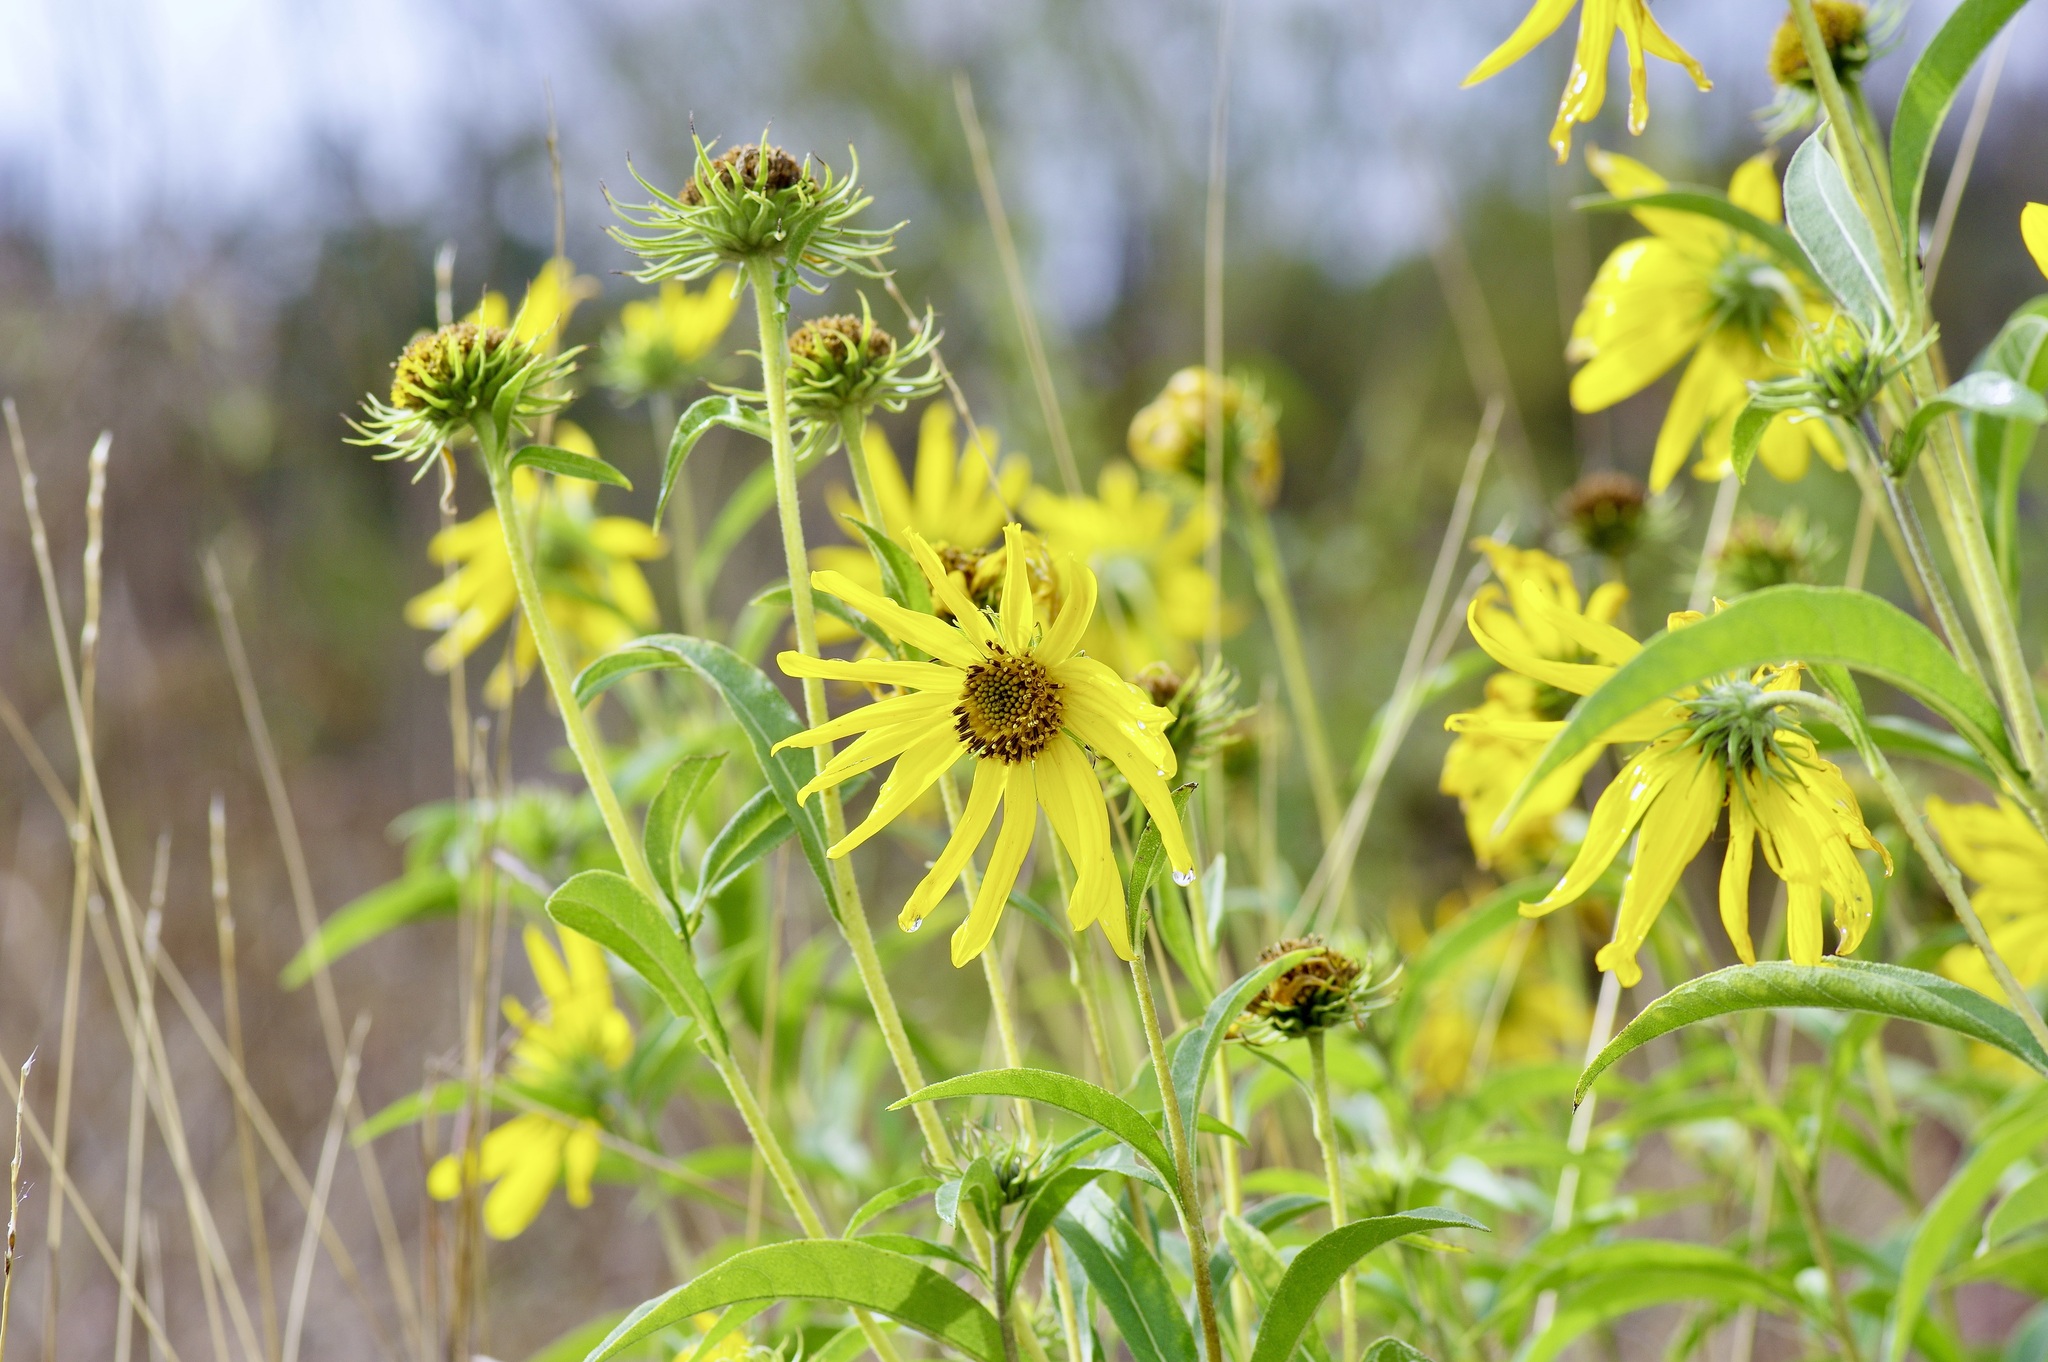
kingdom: Plantae
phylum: Tracheophyta
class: Magnoliopsida
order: Asterales
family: Asteraceae
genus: Helianthus
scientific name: Helianthus maximiliani
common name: Maximilian's sunflower
